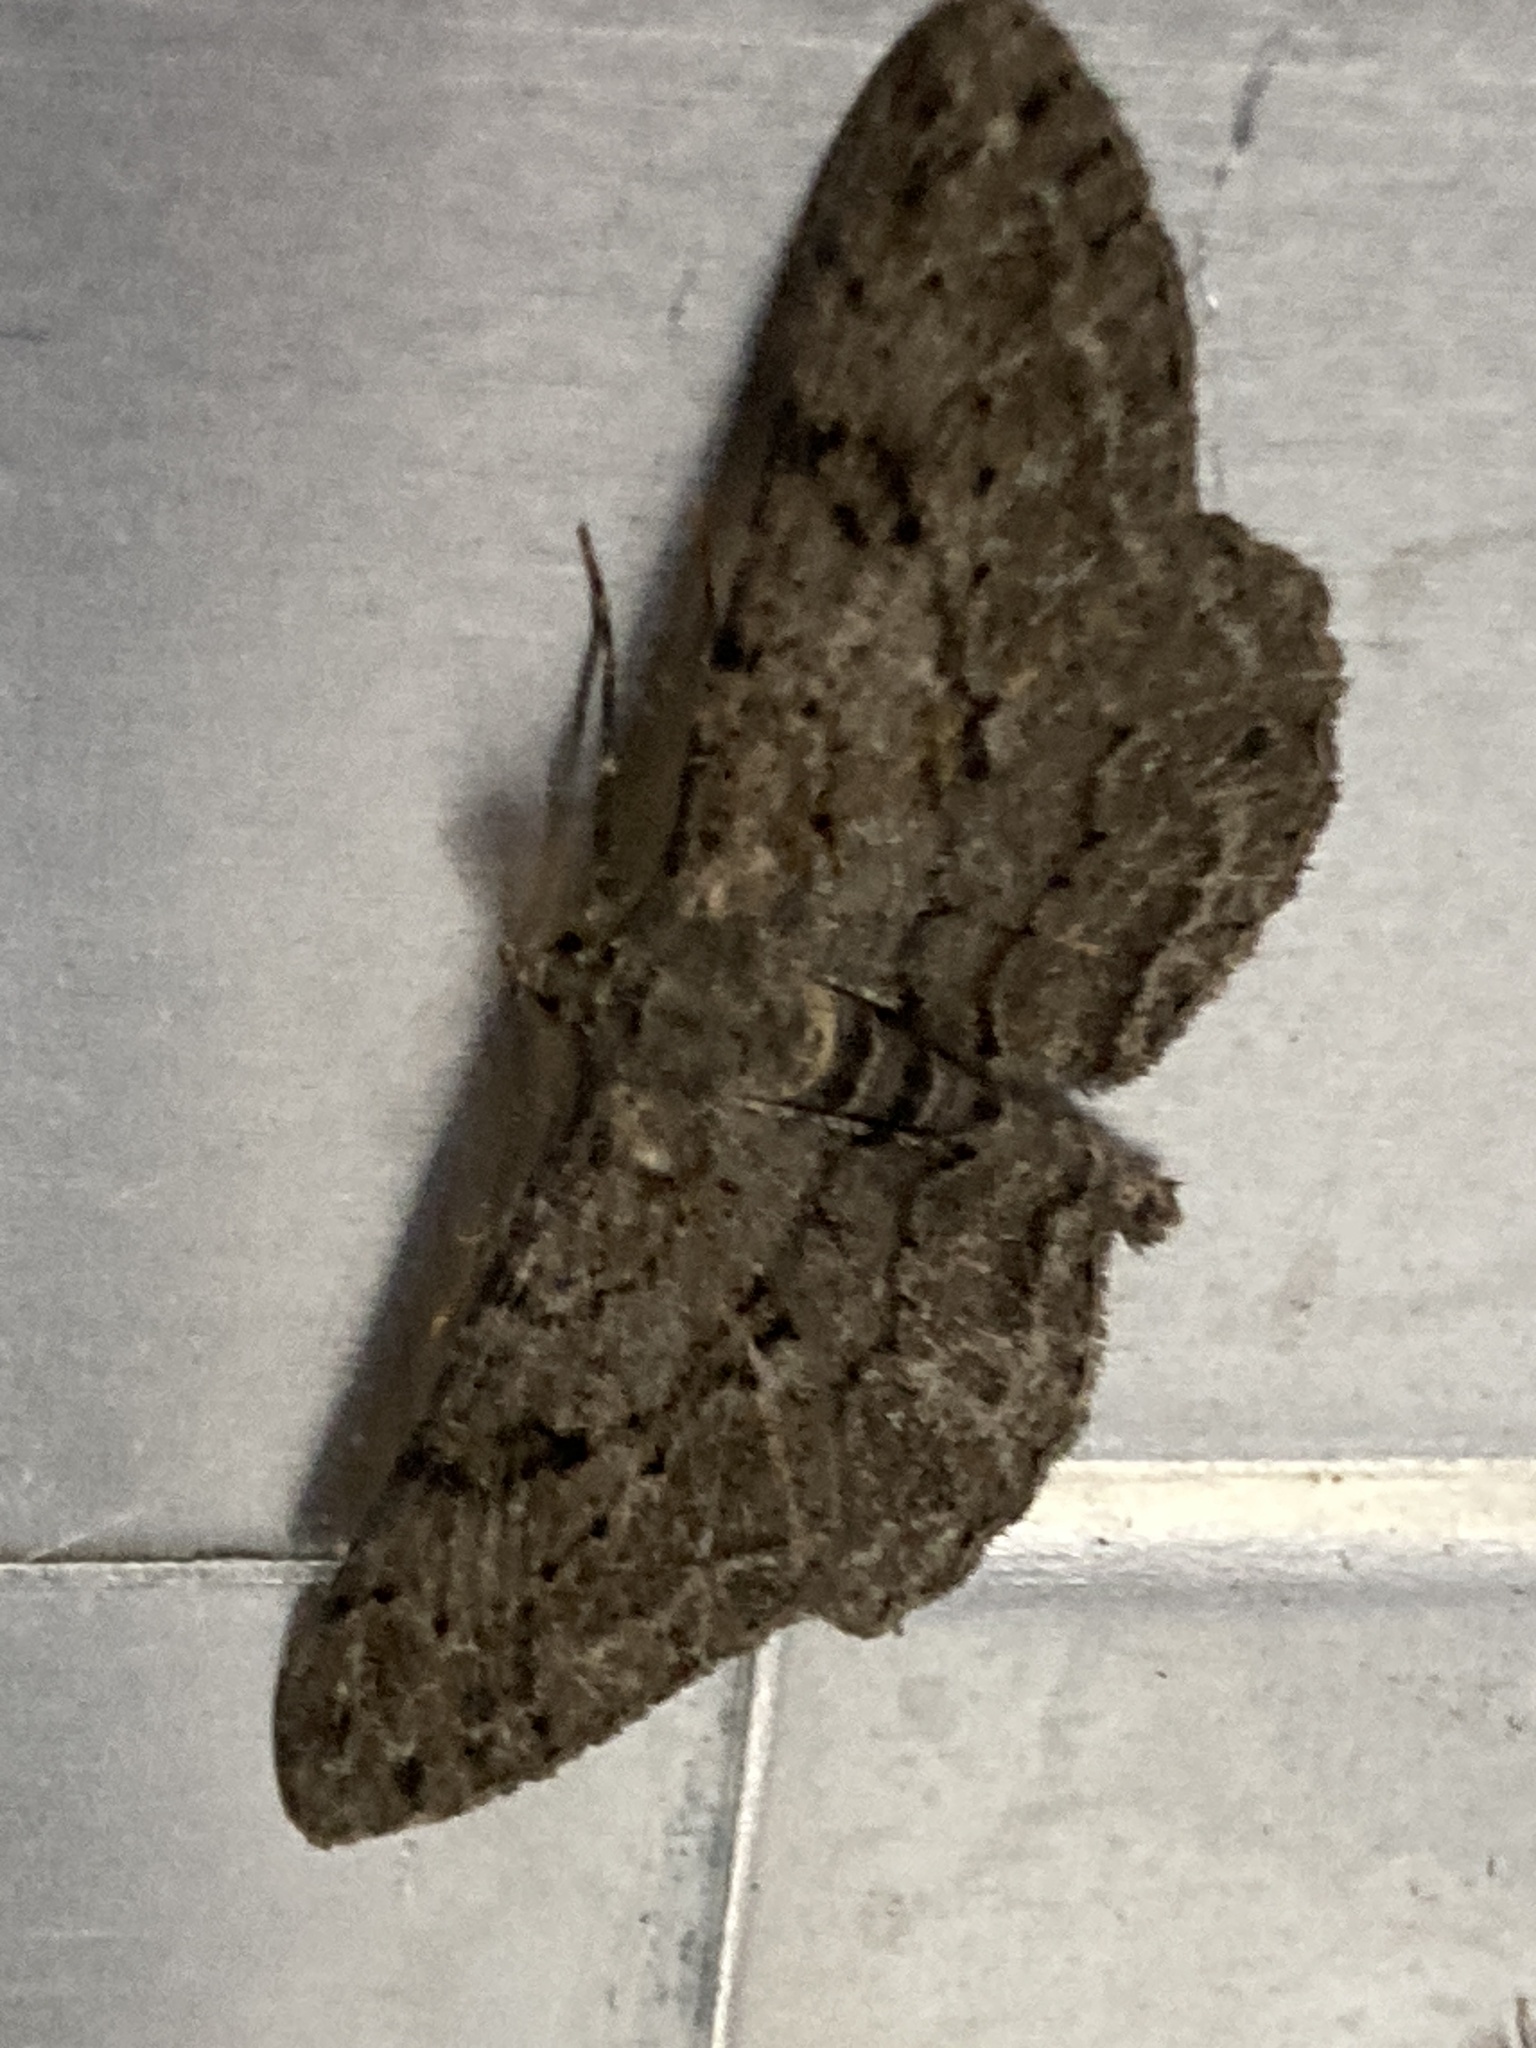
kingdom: Animalia
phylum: Arthropoda
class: Insecta
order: Lepidoptera
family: Geometridae
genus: Peribatodes
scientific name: Peribatodes rhomboidaria
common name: Willow beauty
